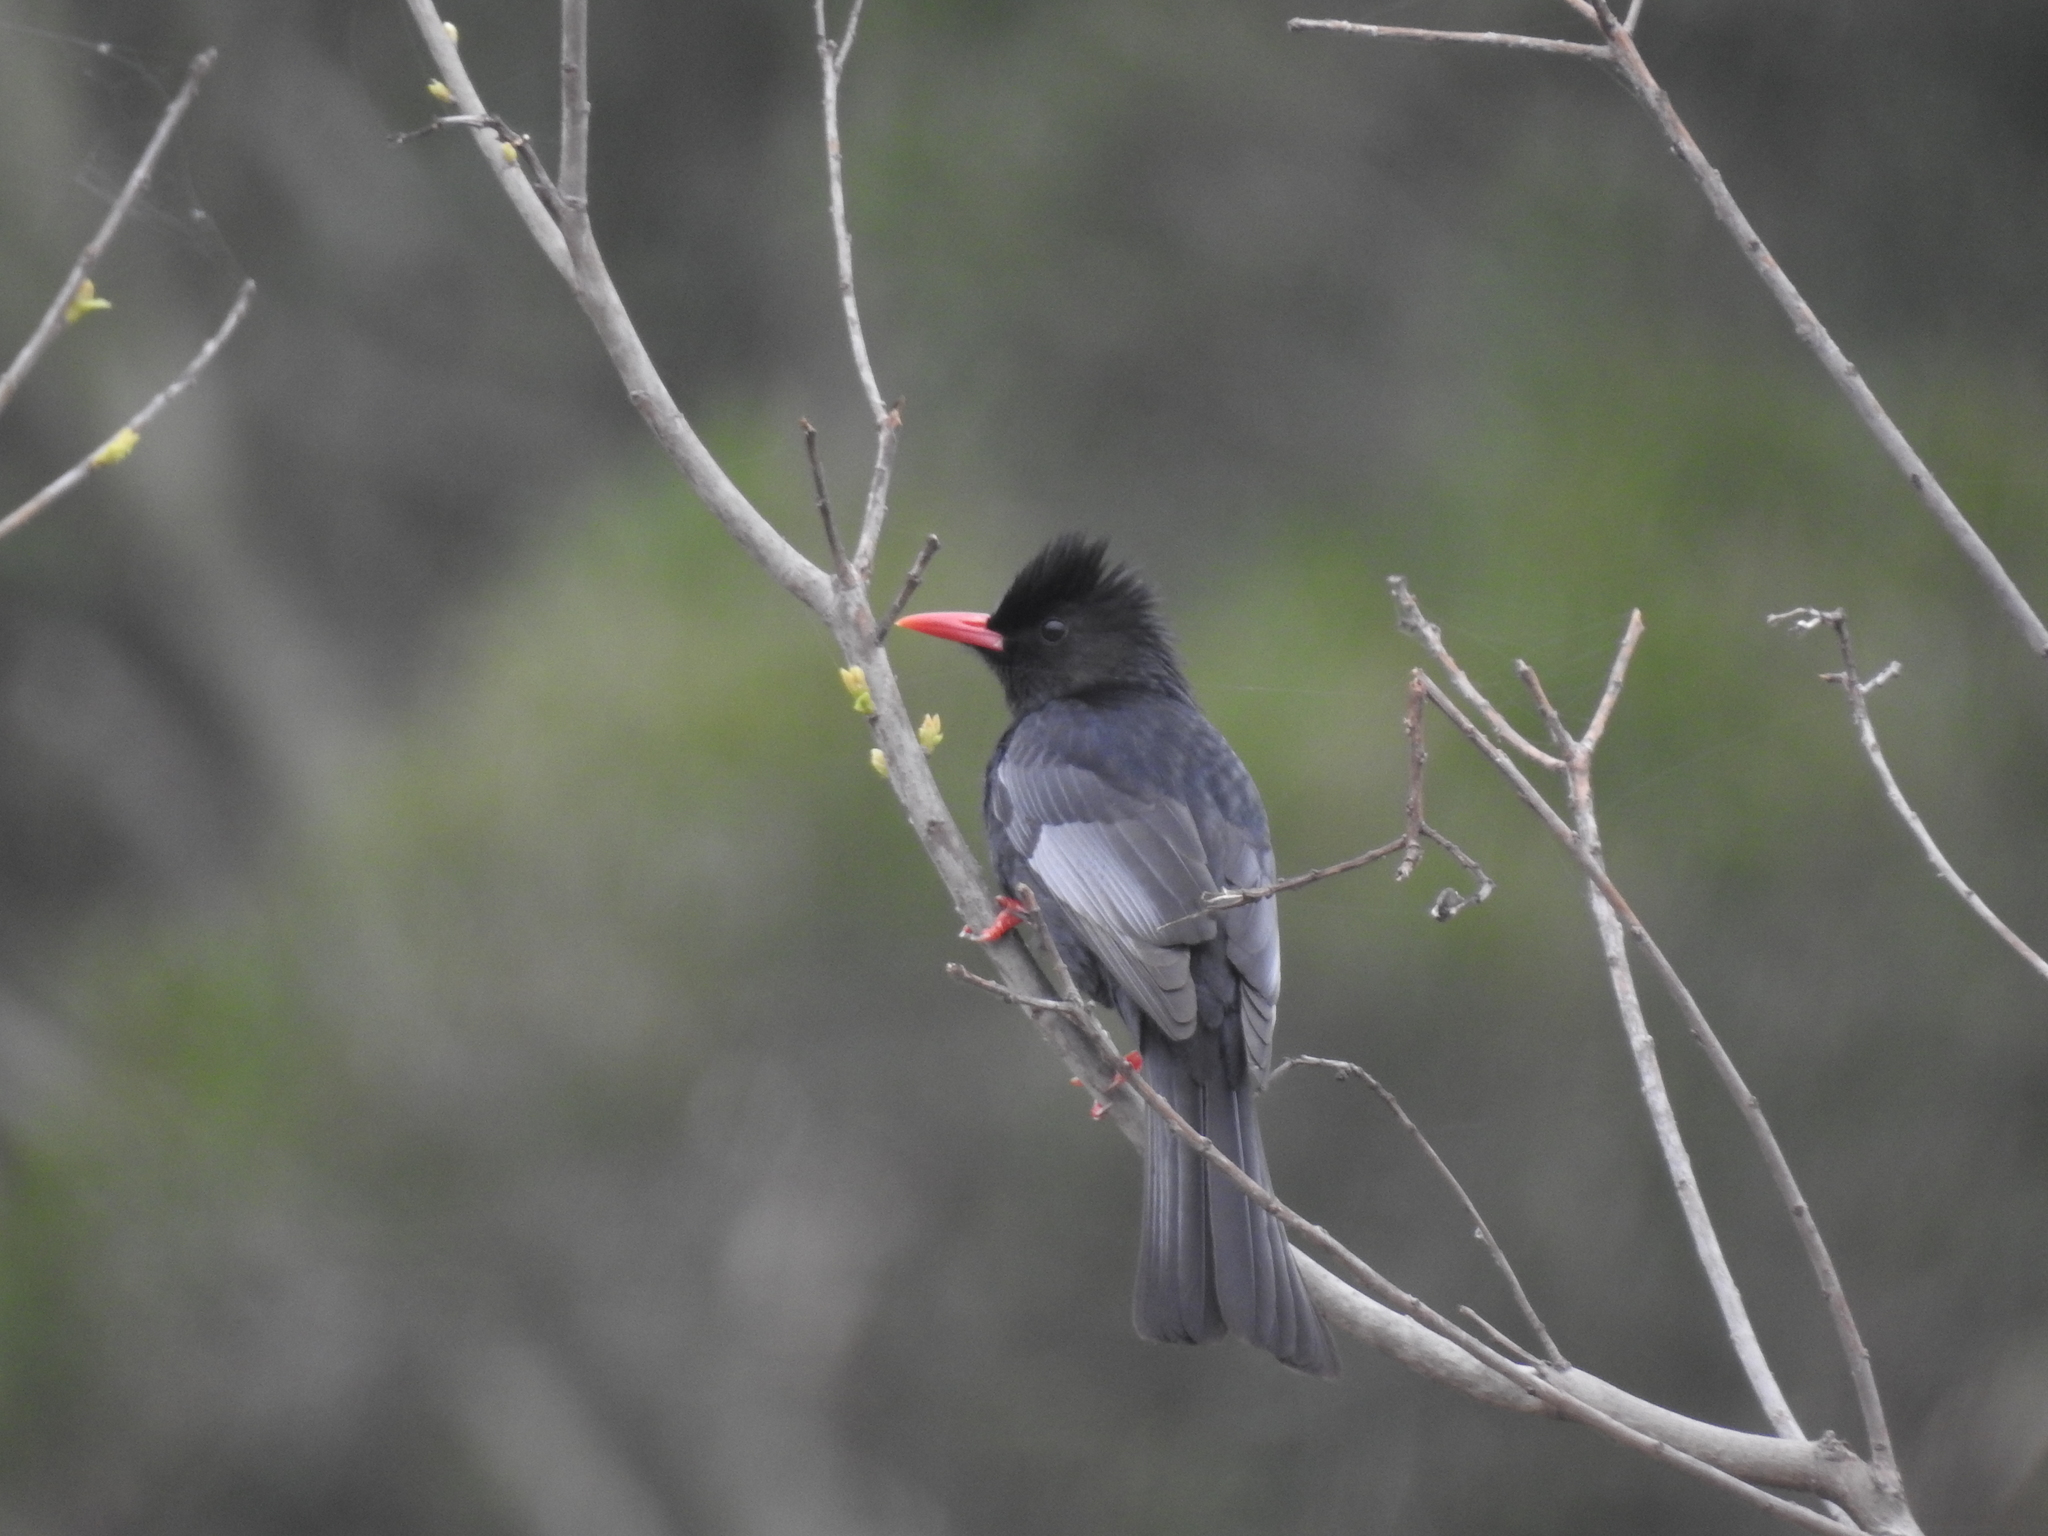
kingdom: Animalia
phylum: Chordata
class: Aves
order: Passeriformes
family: Pycnonotidae
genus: Hypsipetes
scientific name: Hypsipetes leucocephalus
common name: Black bulbul
